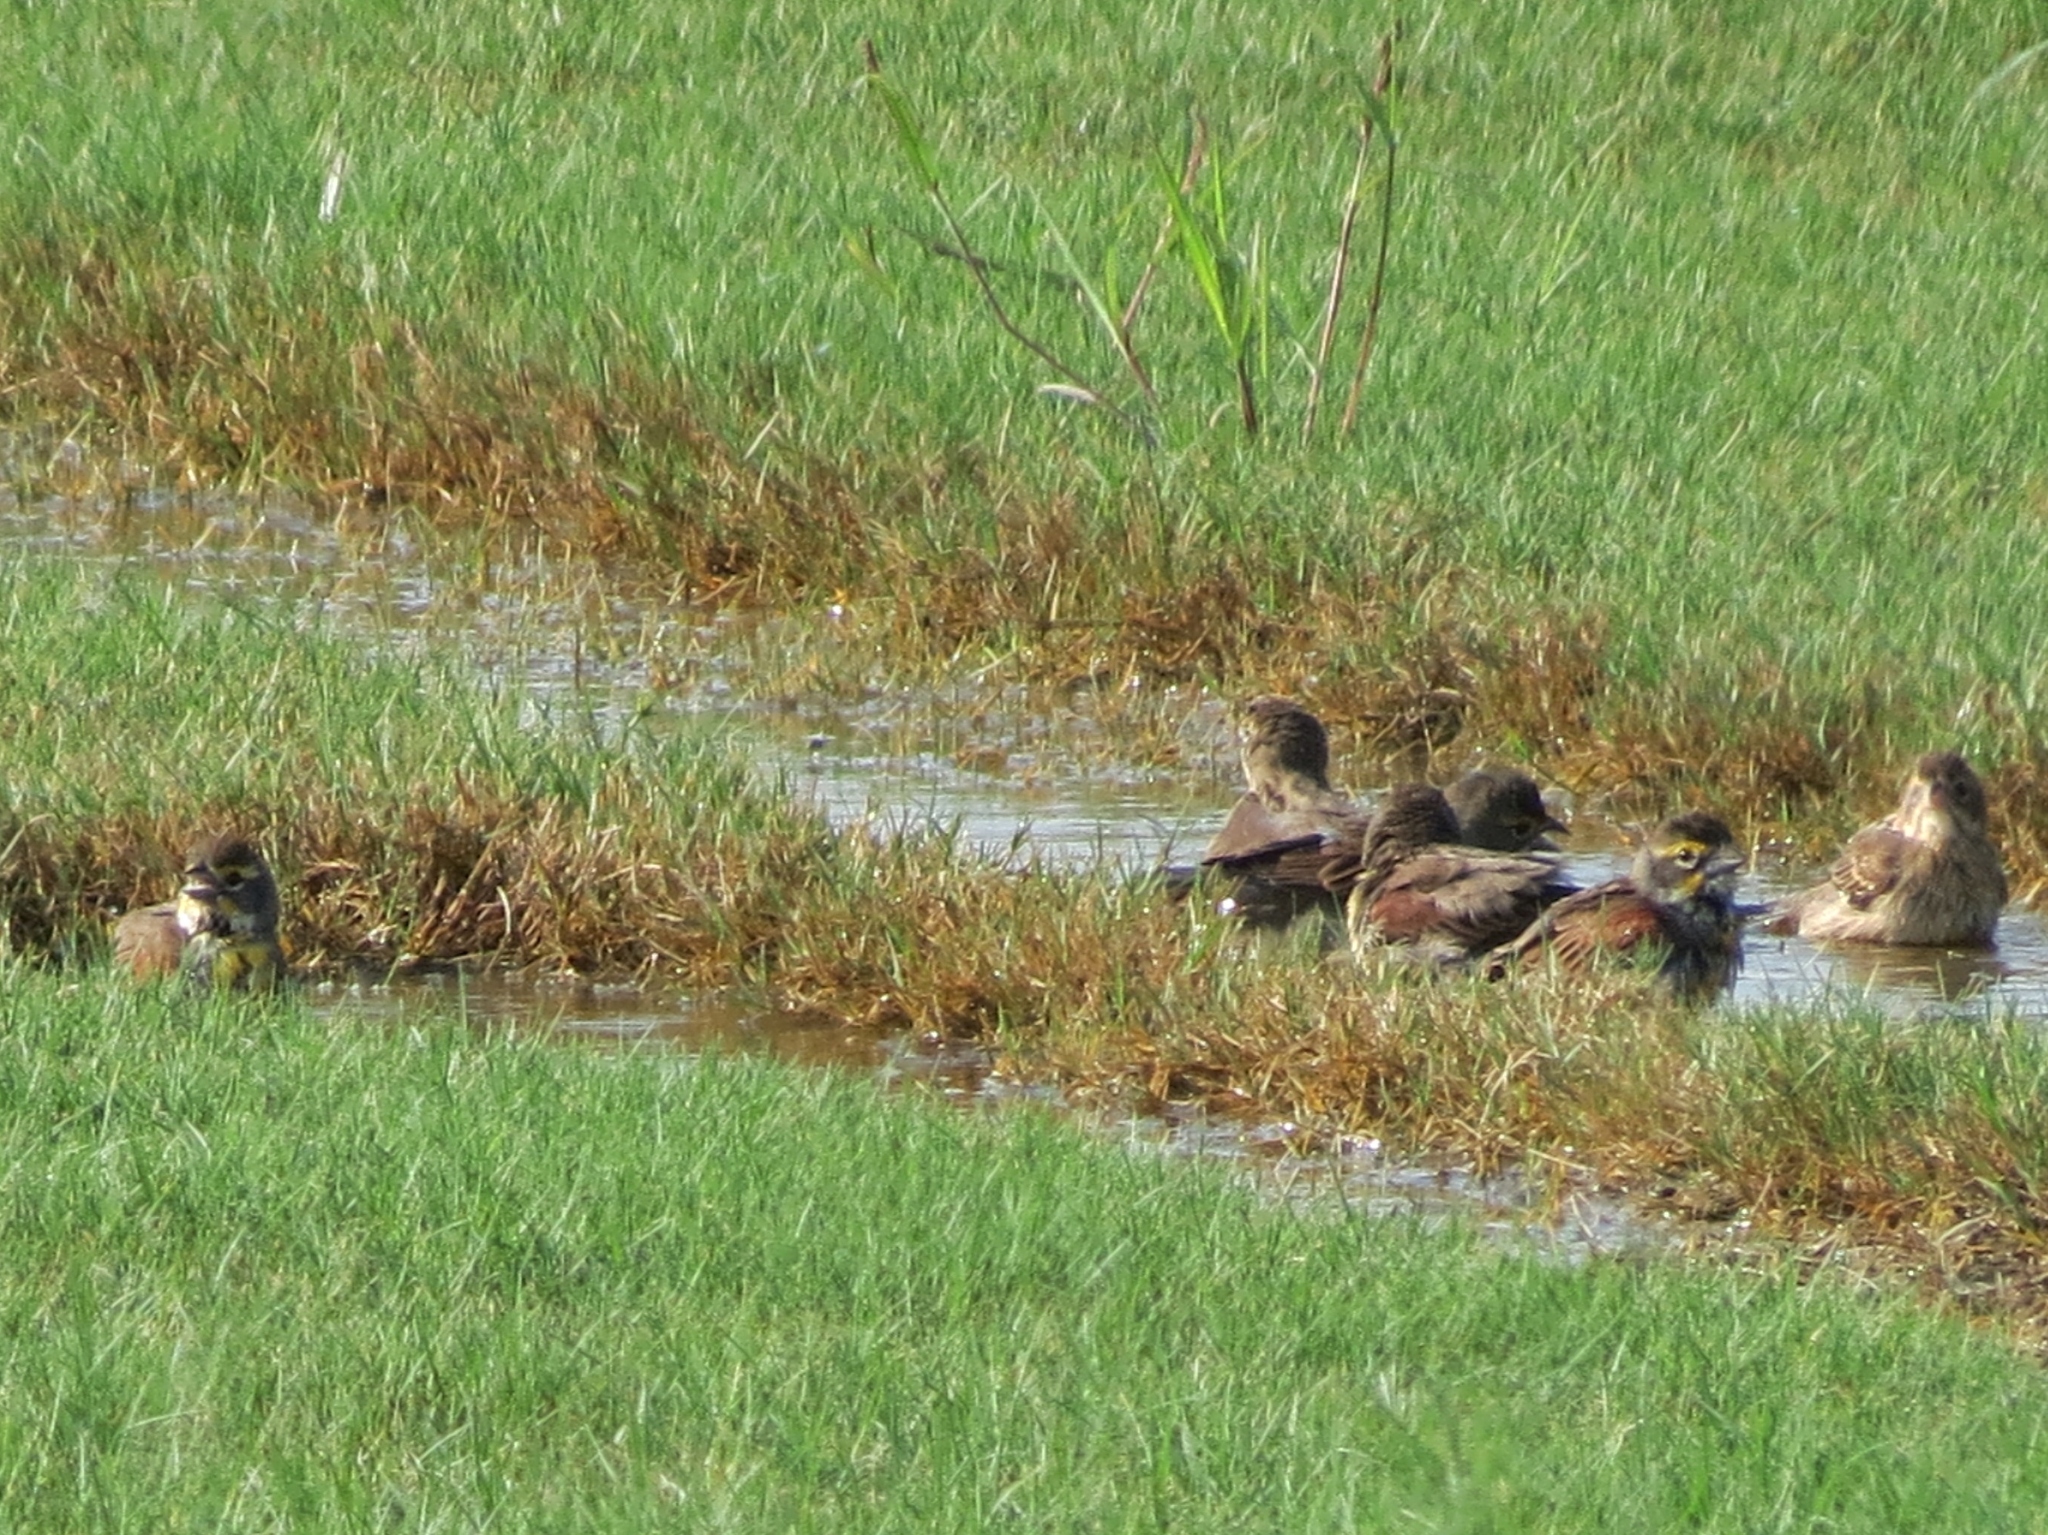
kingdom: Animalia
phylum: Chordata
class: Aves
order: Passeriformes
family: Cardinalidae
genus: Spiza
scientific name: Spiza americana
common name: Dickcissel
